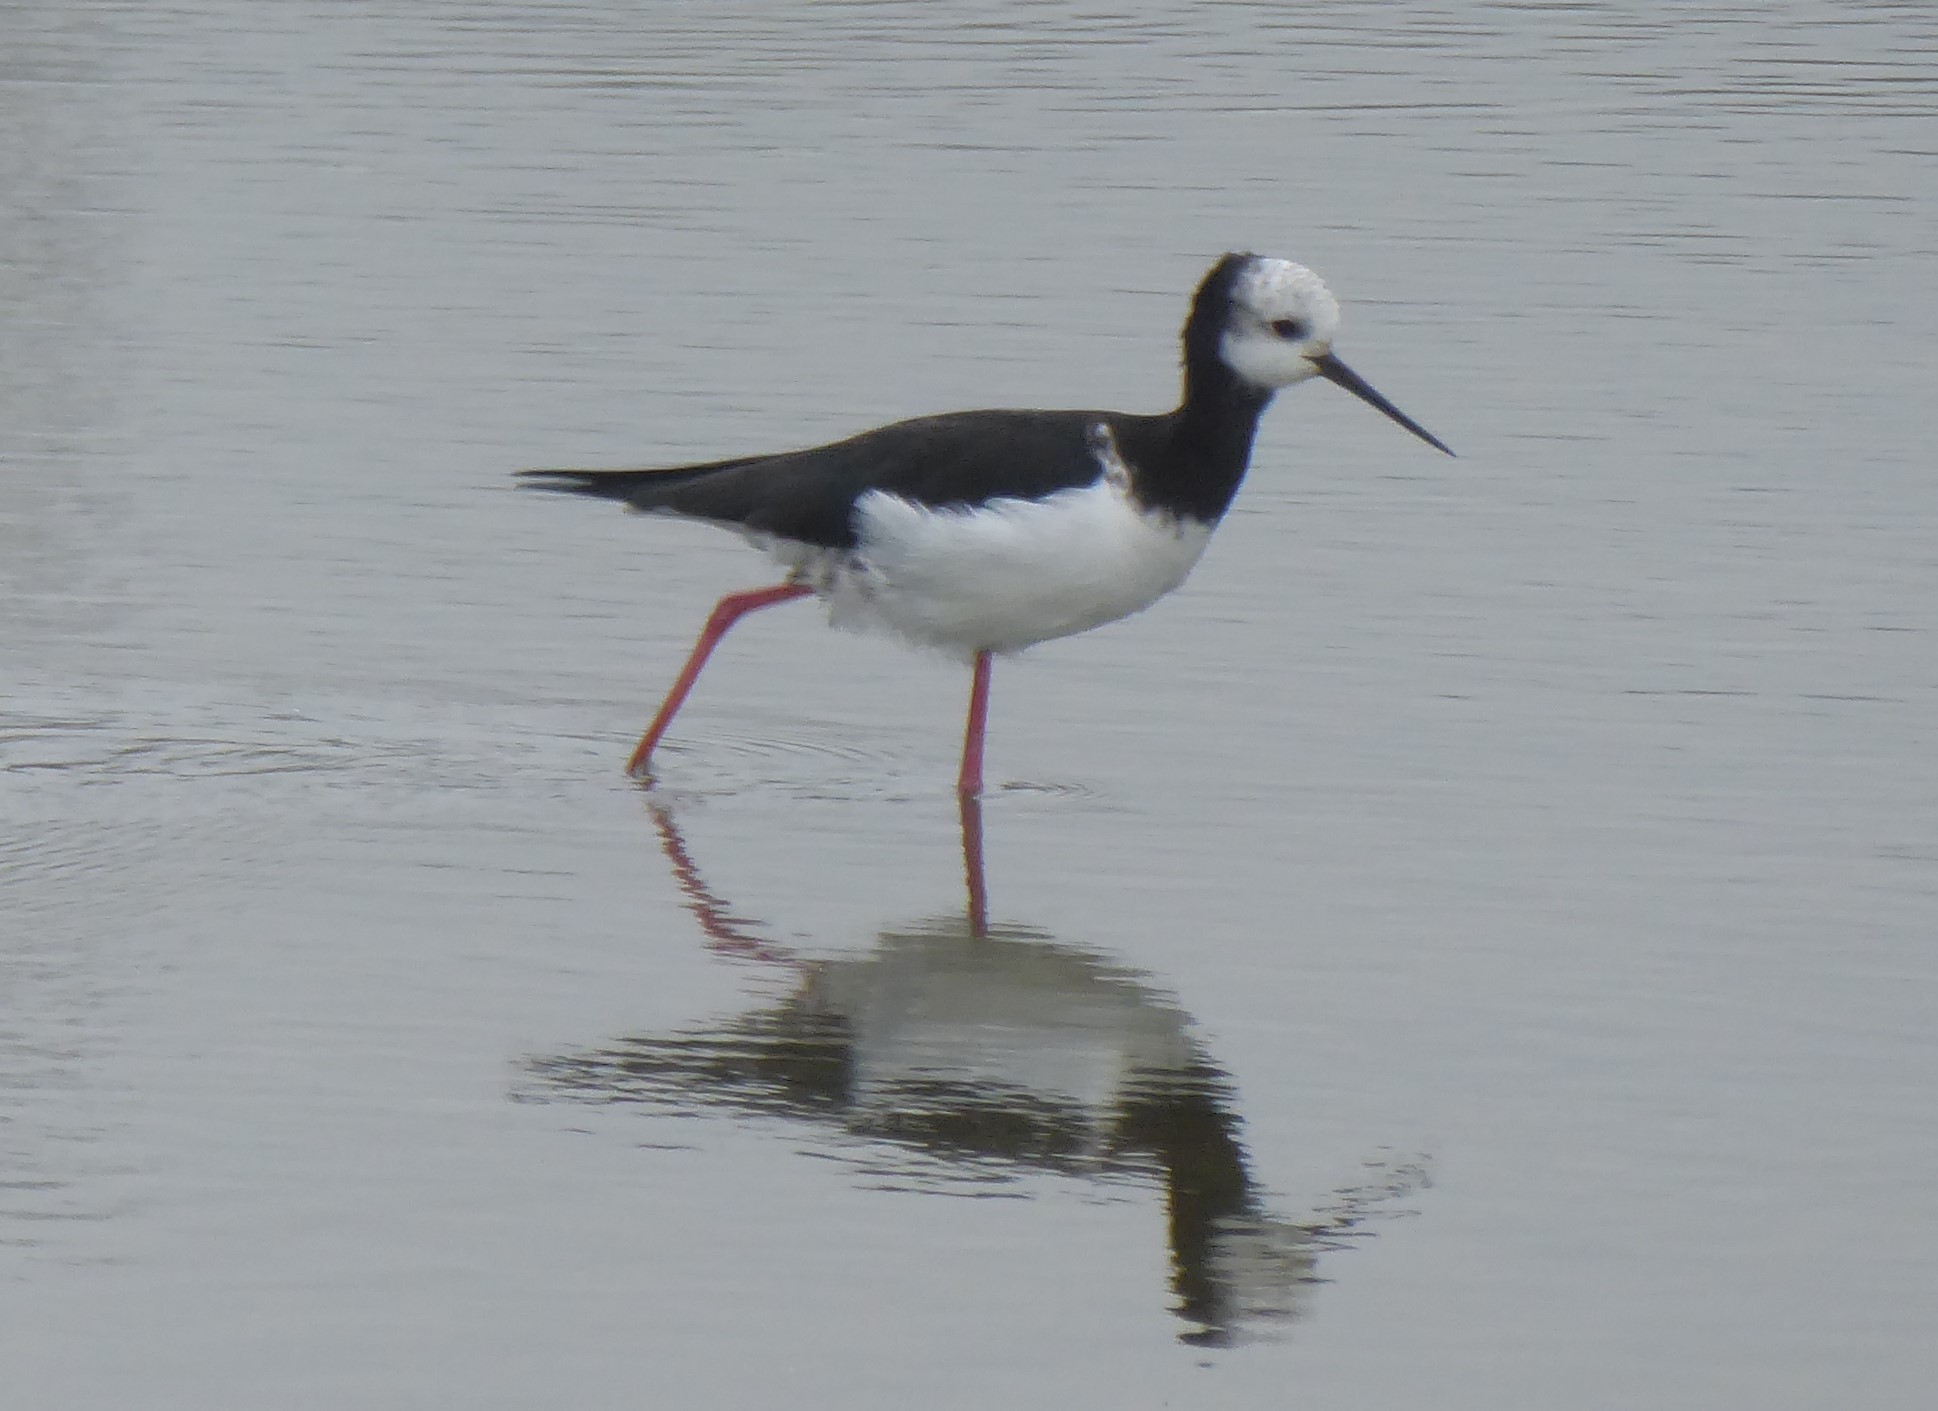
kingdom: Animalia
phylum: Chordata
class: Aves
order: Charadriiformes
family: Recurvirostridae
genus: Himantopus
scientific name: Himantopus
